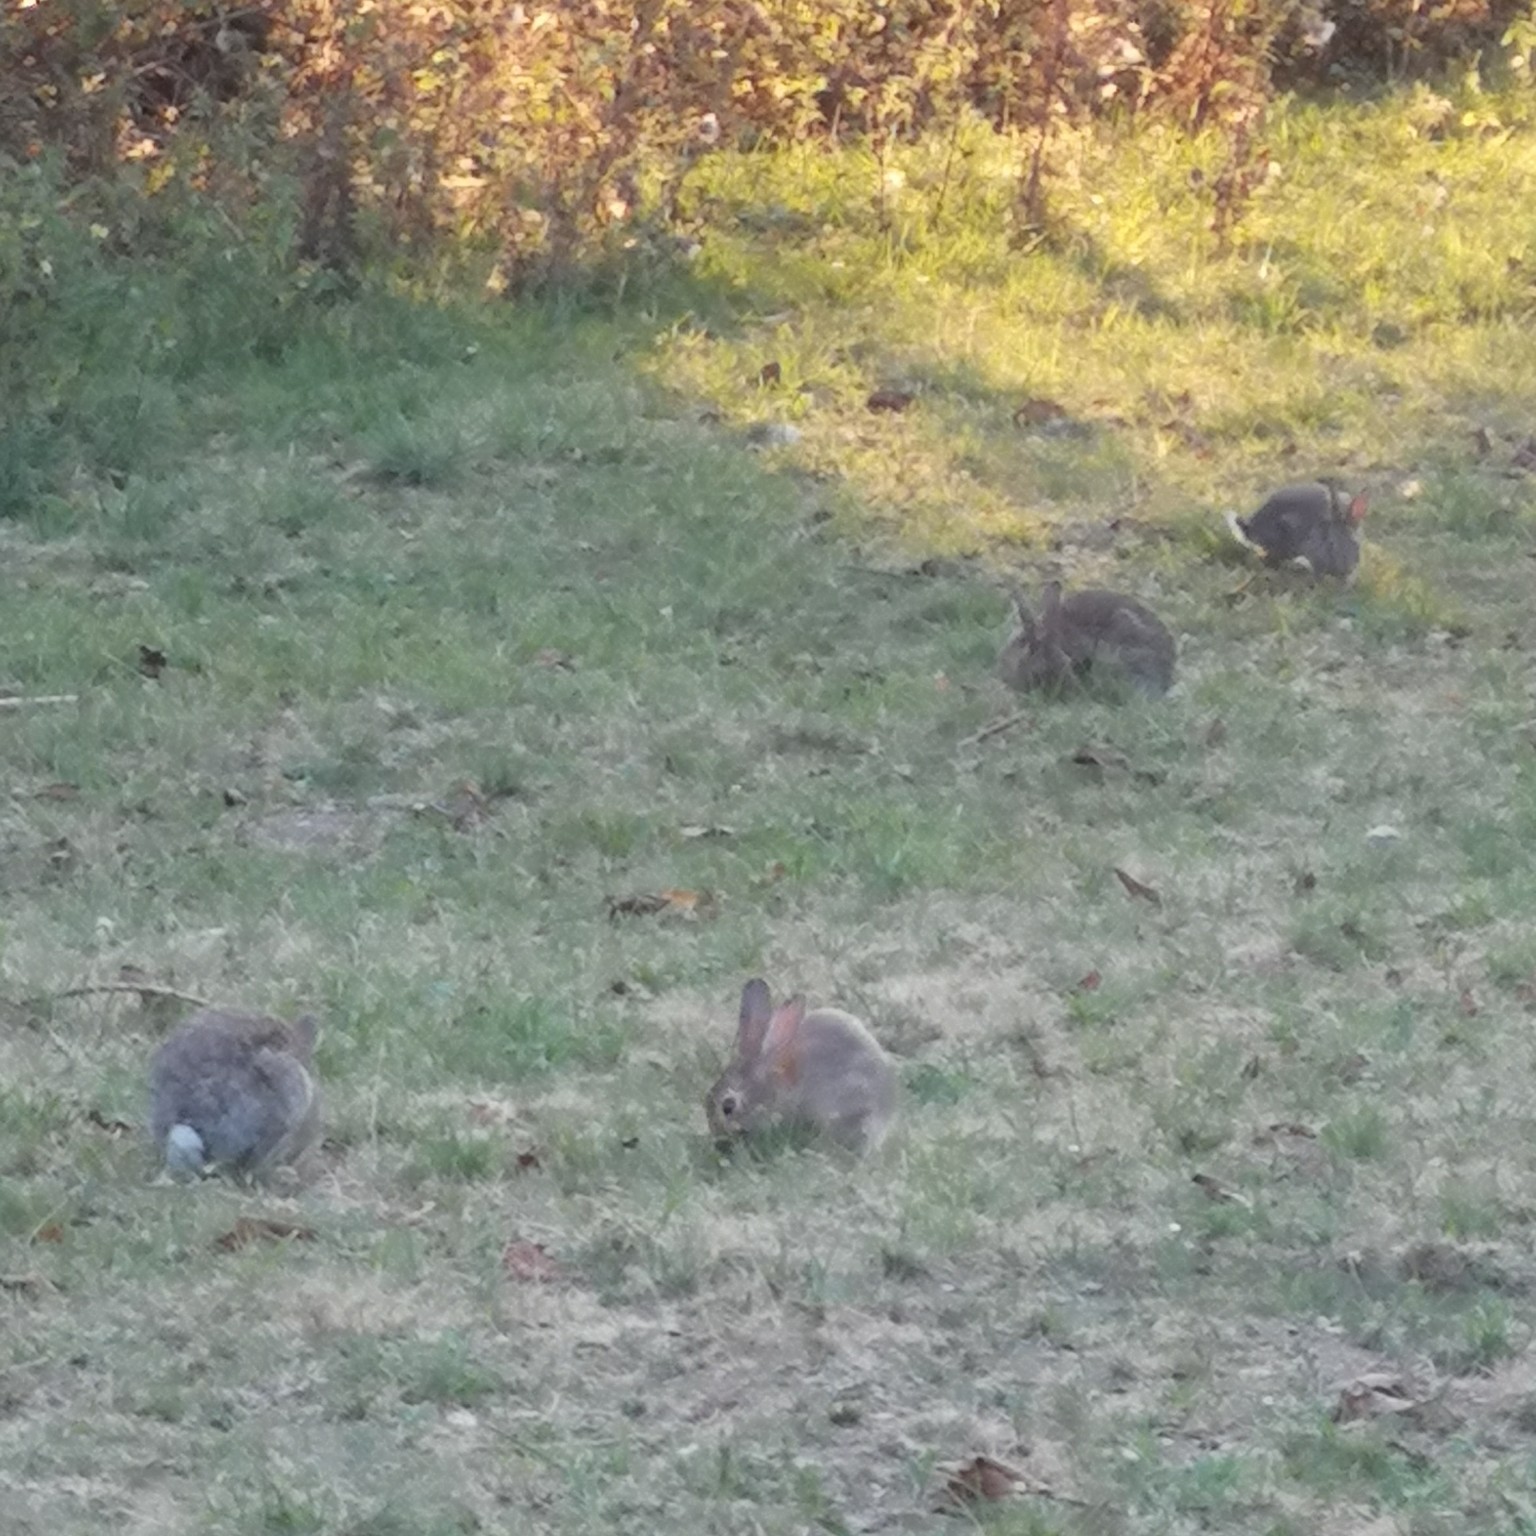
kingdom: Animalia
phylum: Chordata
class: Mammalia
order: Lagomorpha
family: Leporidae
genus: Oryctolagus
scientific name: Oryctolagus cuniculus
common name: European rabbit
